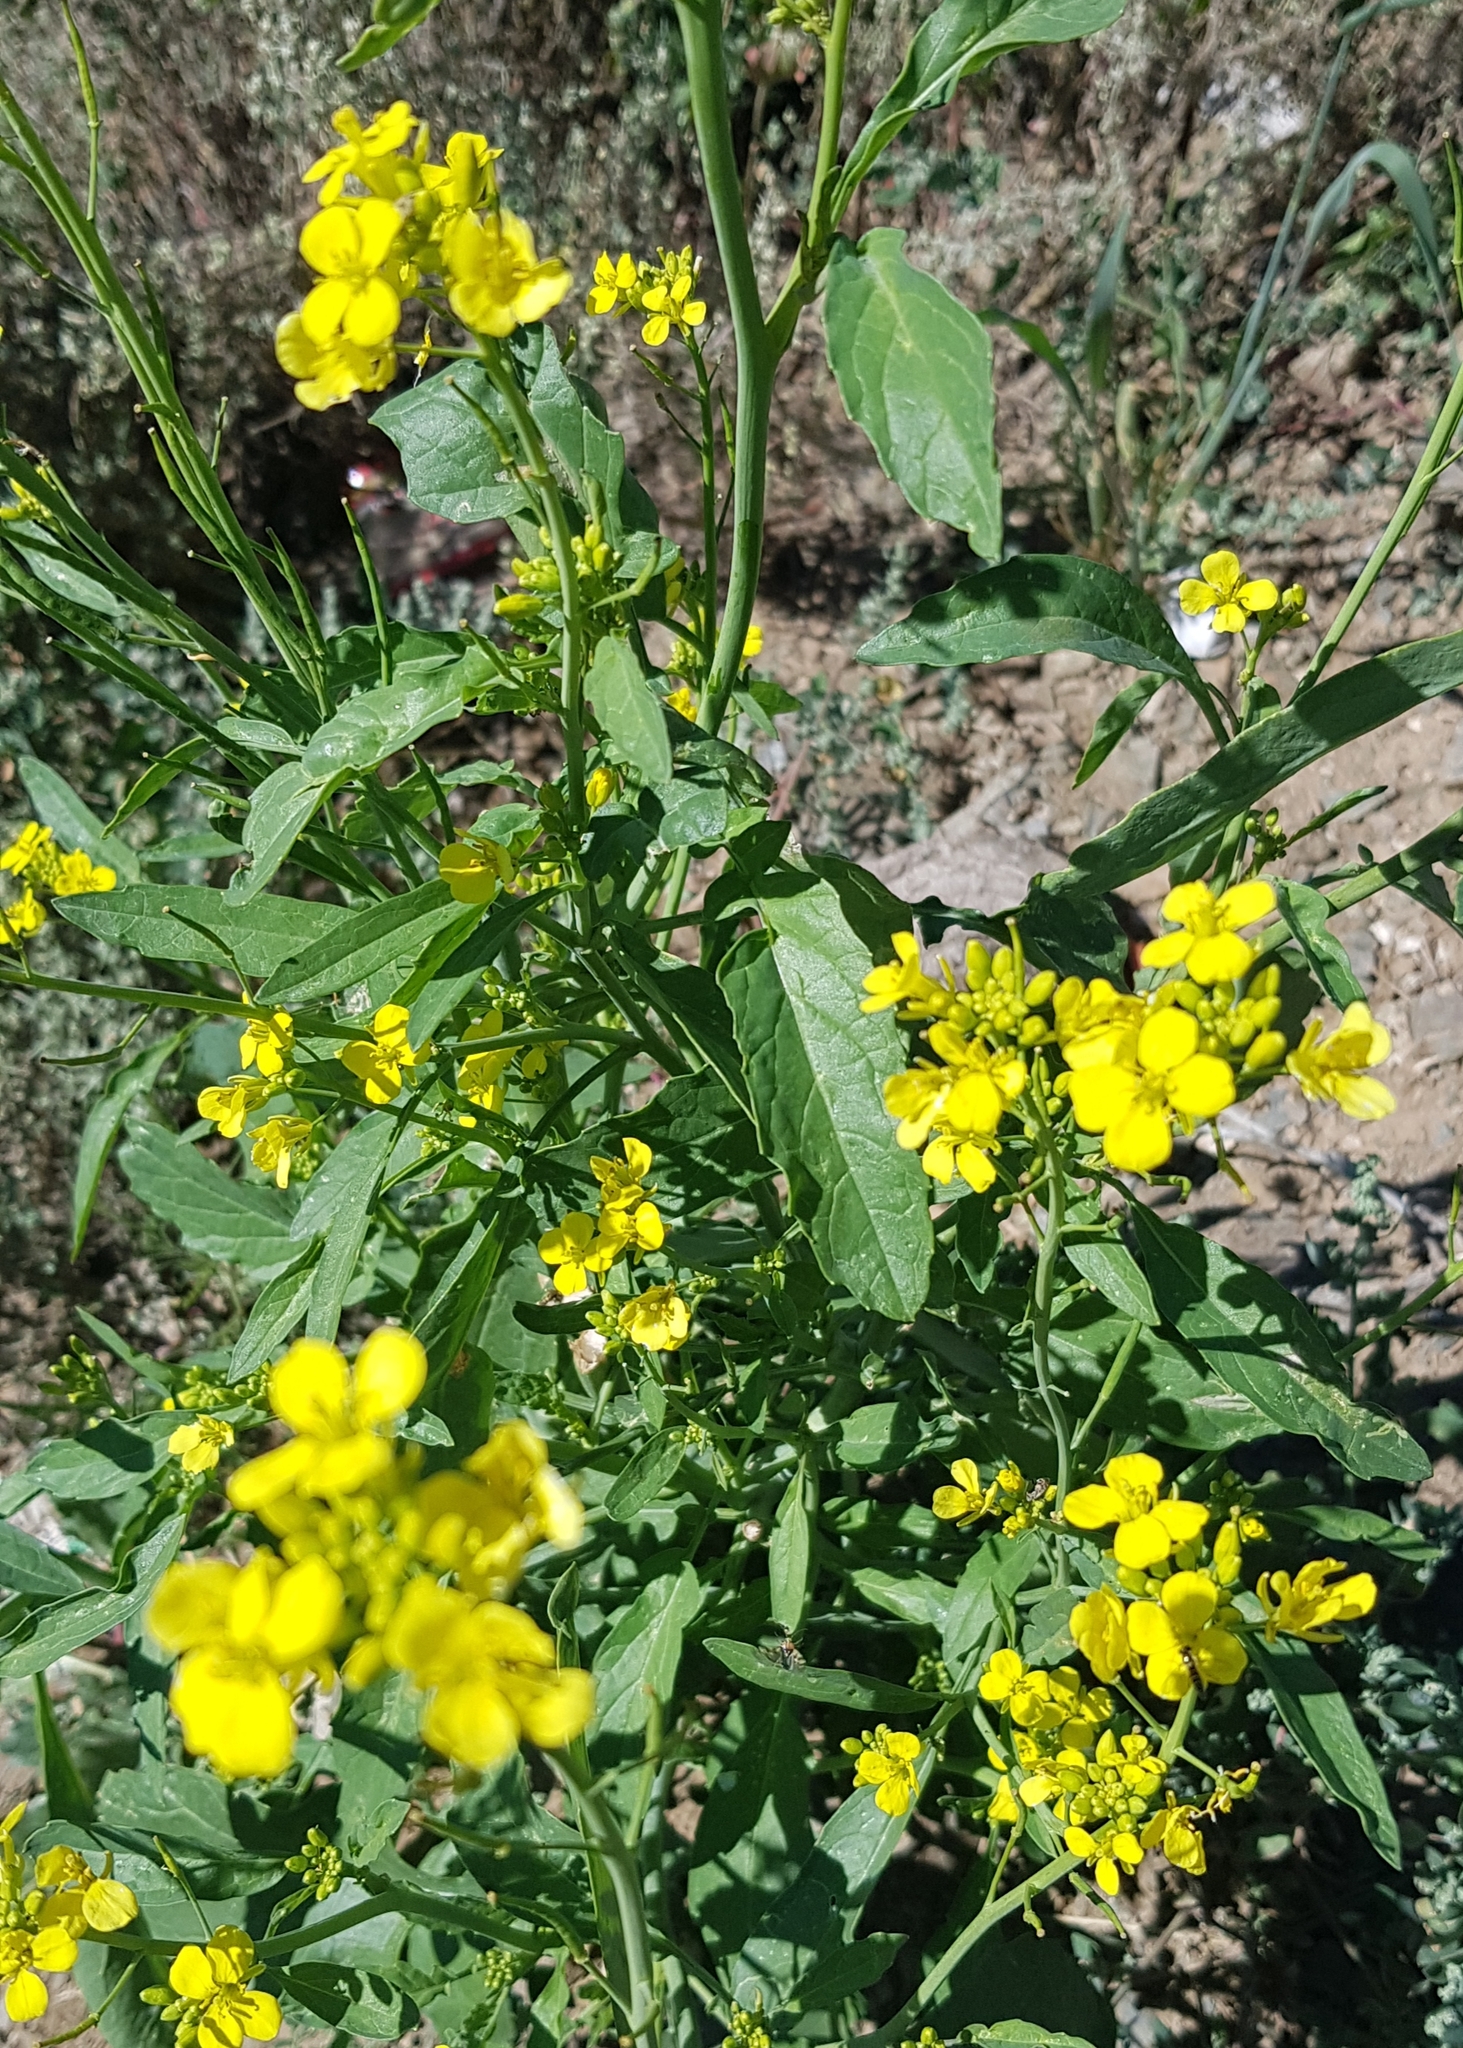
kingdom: Plantae
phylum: Tracheophyta
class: Magnoliopsida
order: Brassicales
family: Brassicaceae
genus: Brassica
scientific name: Brassica rapa
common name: Field mustard
